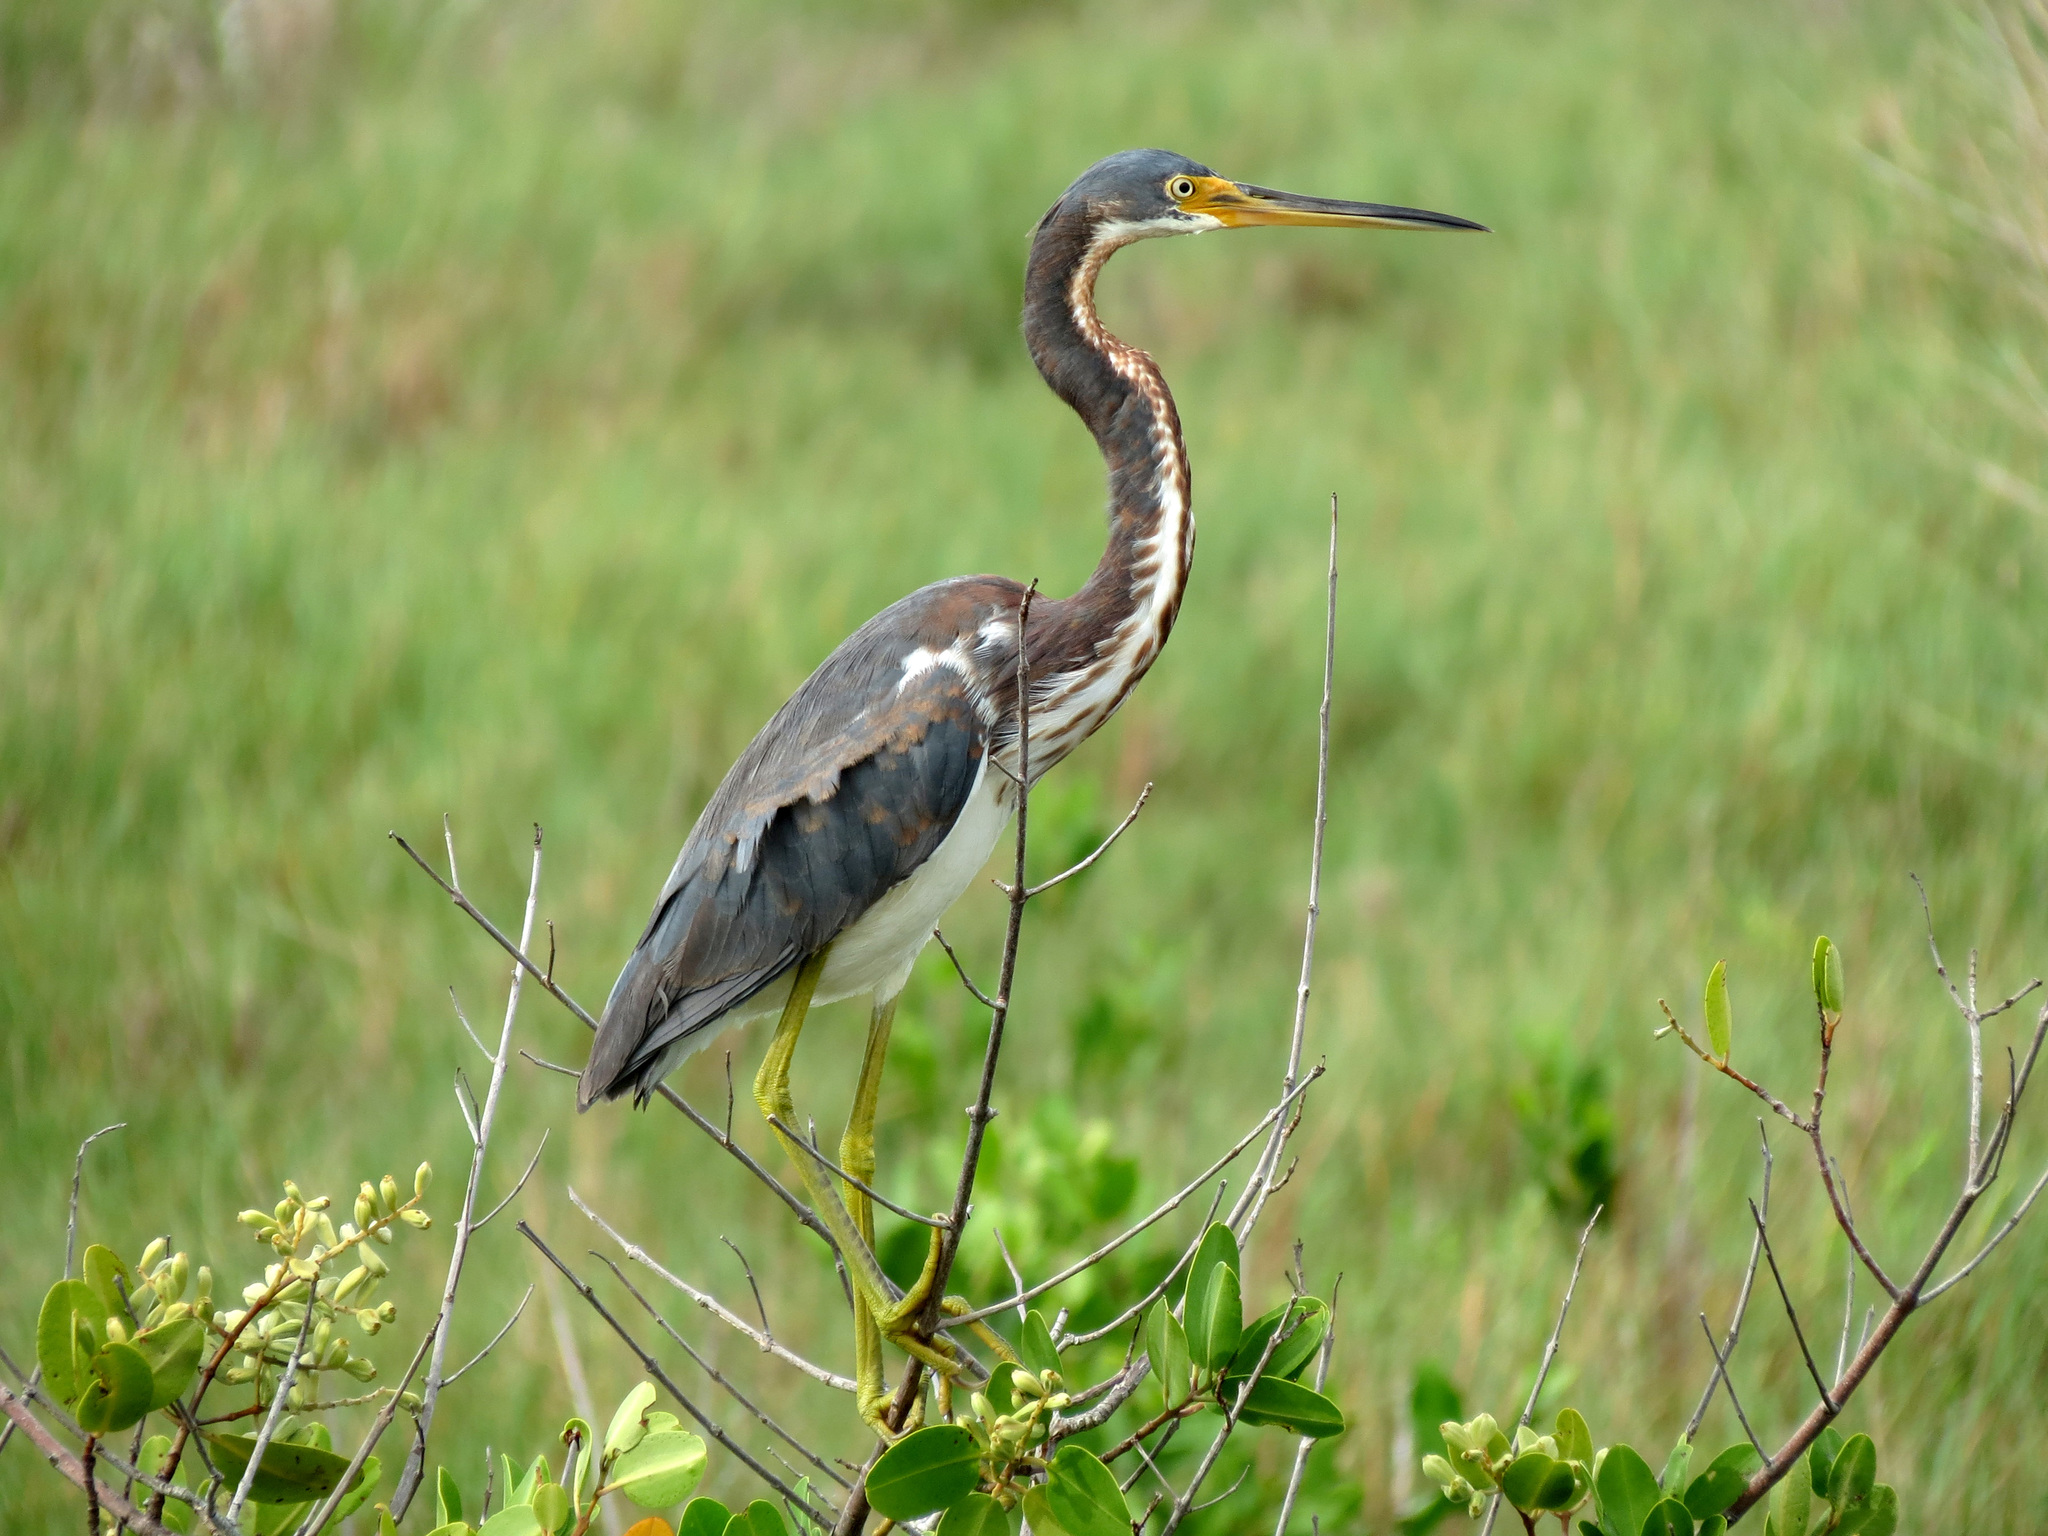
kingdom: Animalia
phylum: Chordata
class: Aves
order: Pelecaniformes
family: Ardeidae
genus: Egretta
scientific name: Egretta tricolor
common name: Tricolored heron
